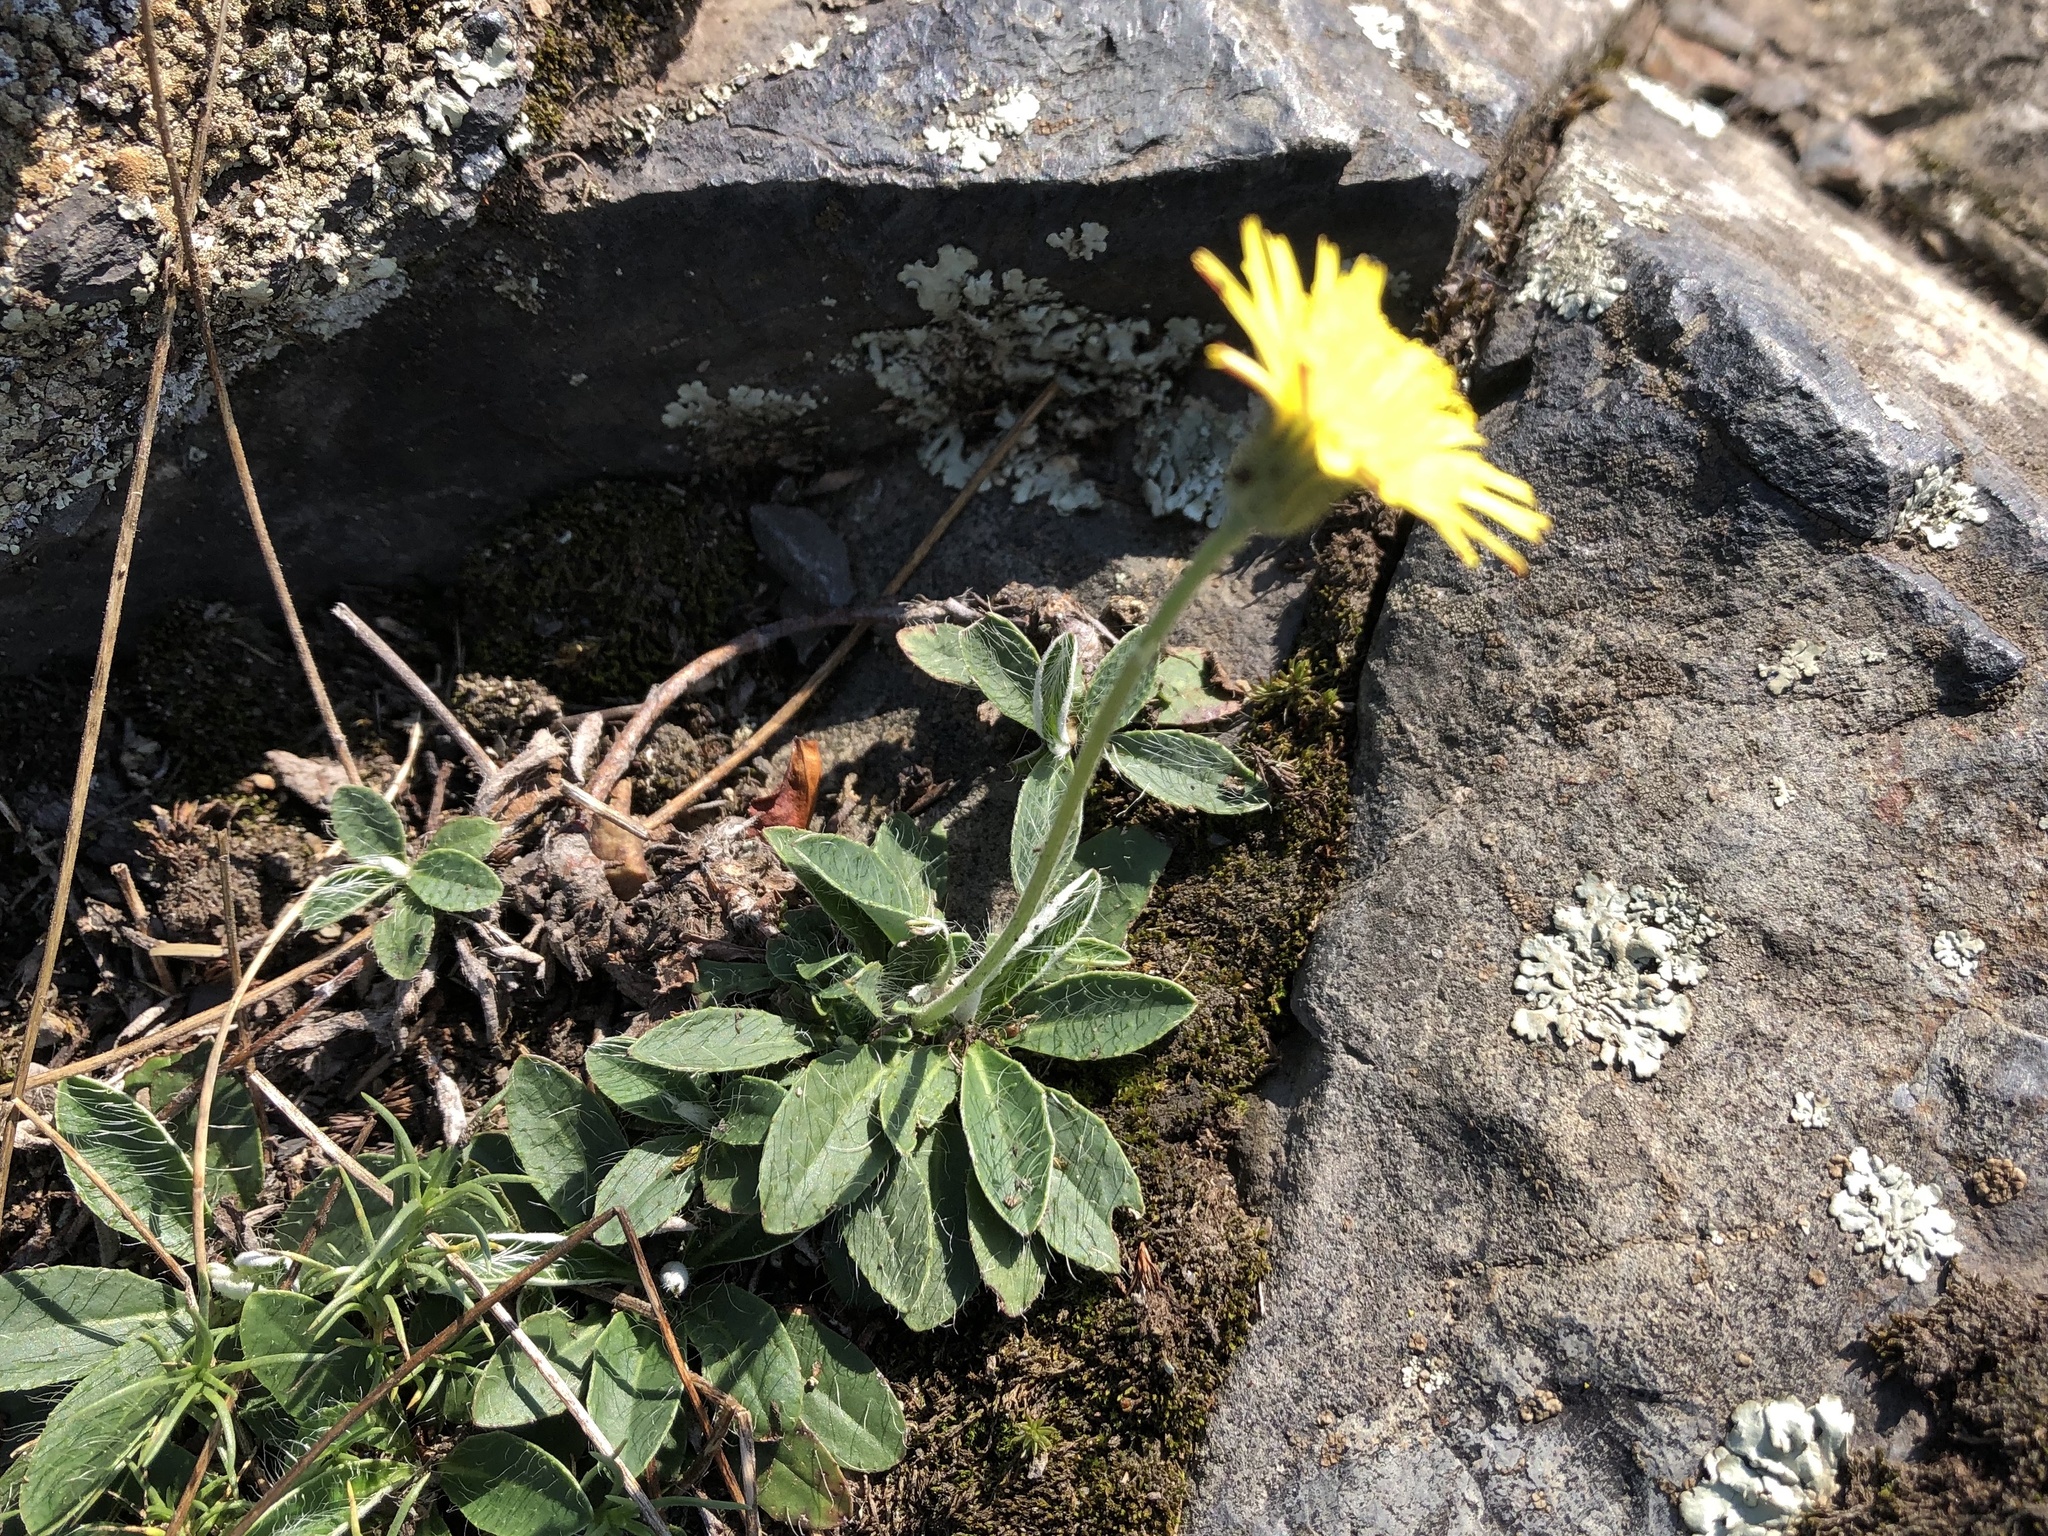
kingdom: Plantae
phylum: Tracheophyta
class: Magnoliopsida
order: Asterales
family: Asteraceae
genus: Pilosella
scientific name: Pilosella officinarum
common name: Mouse-ear hawkweed
